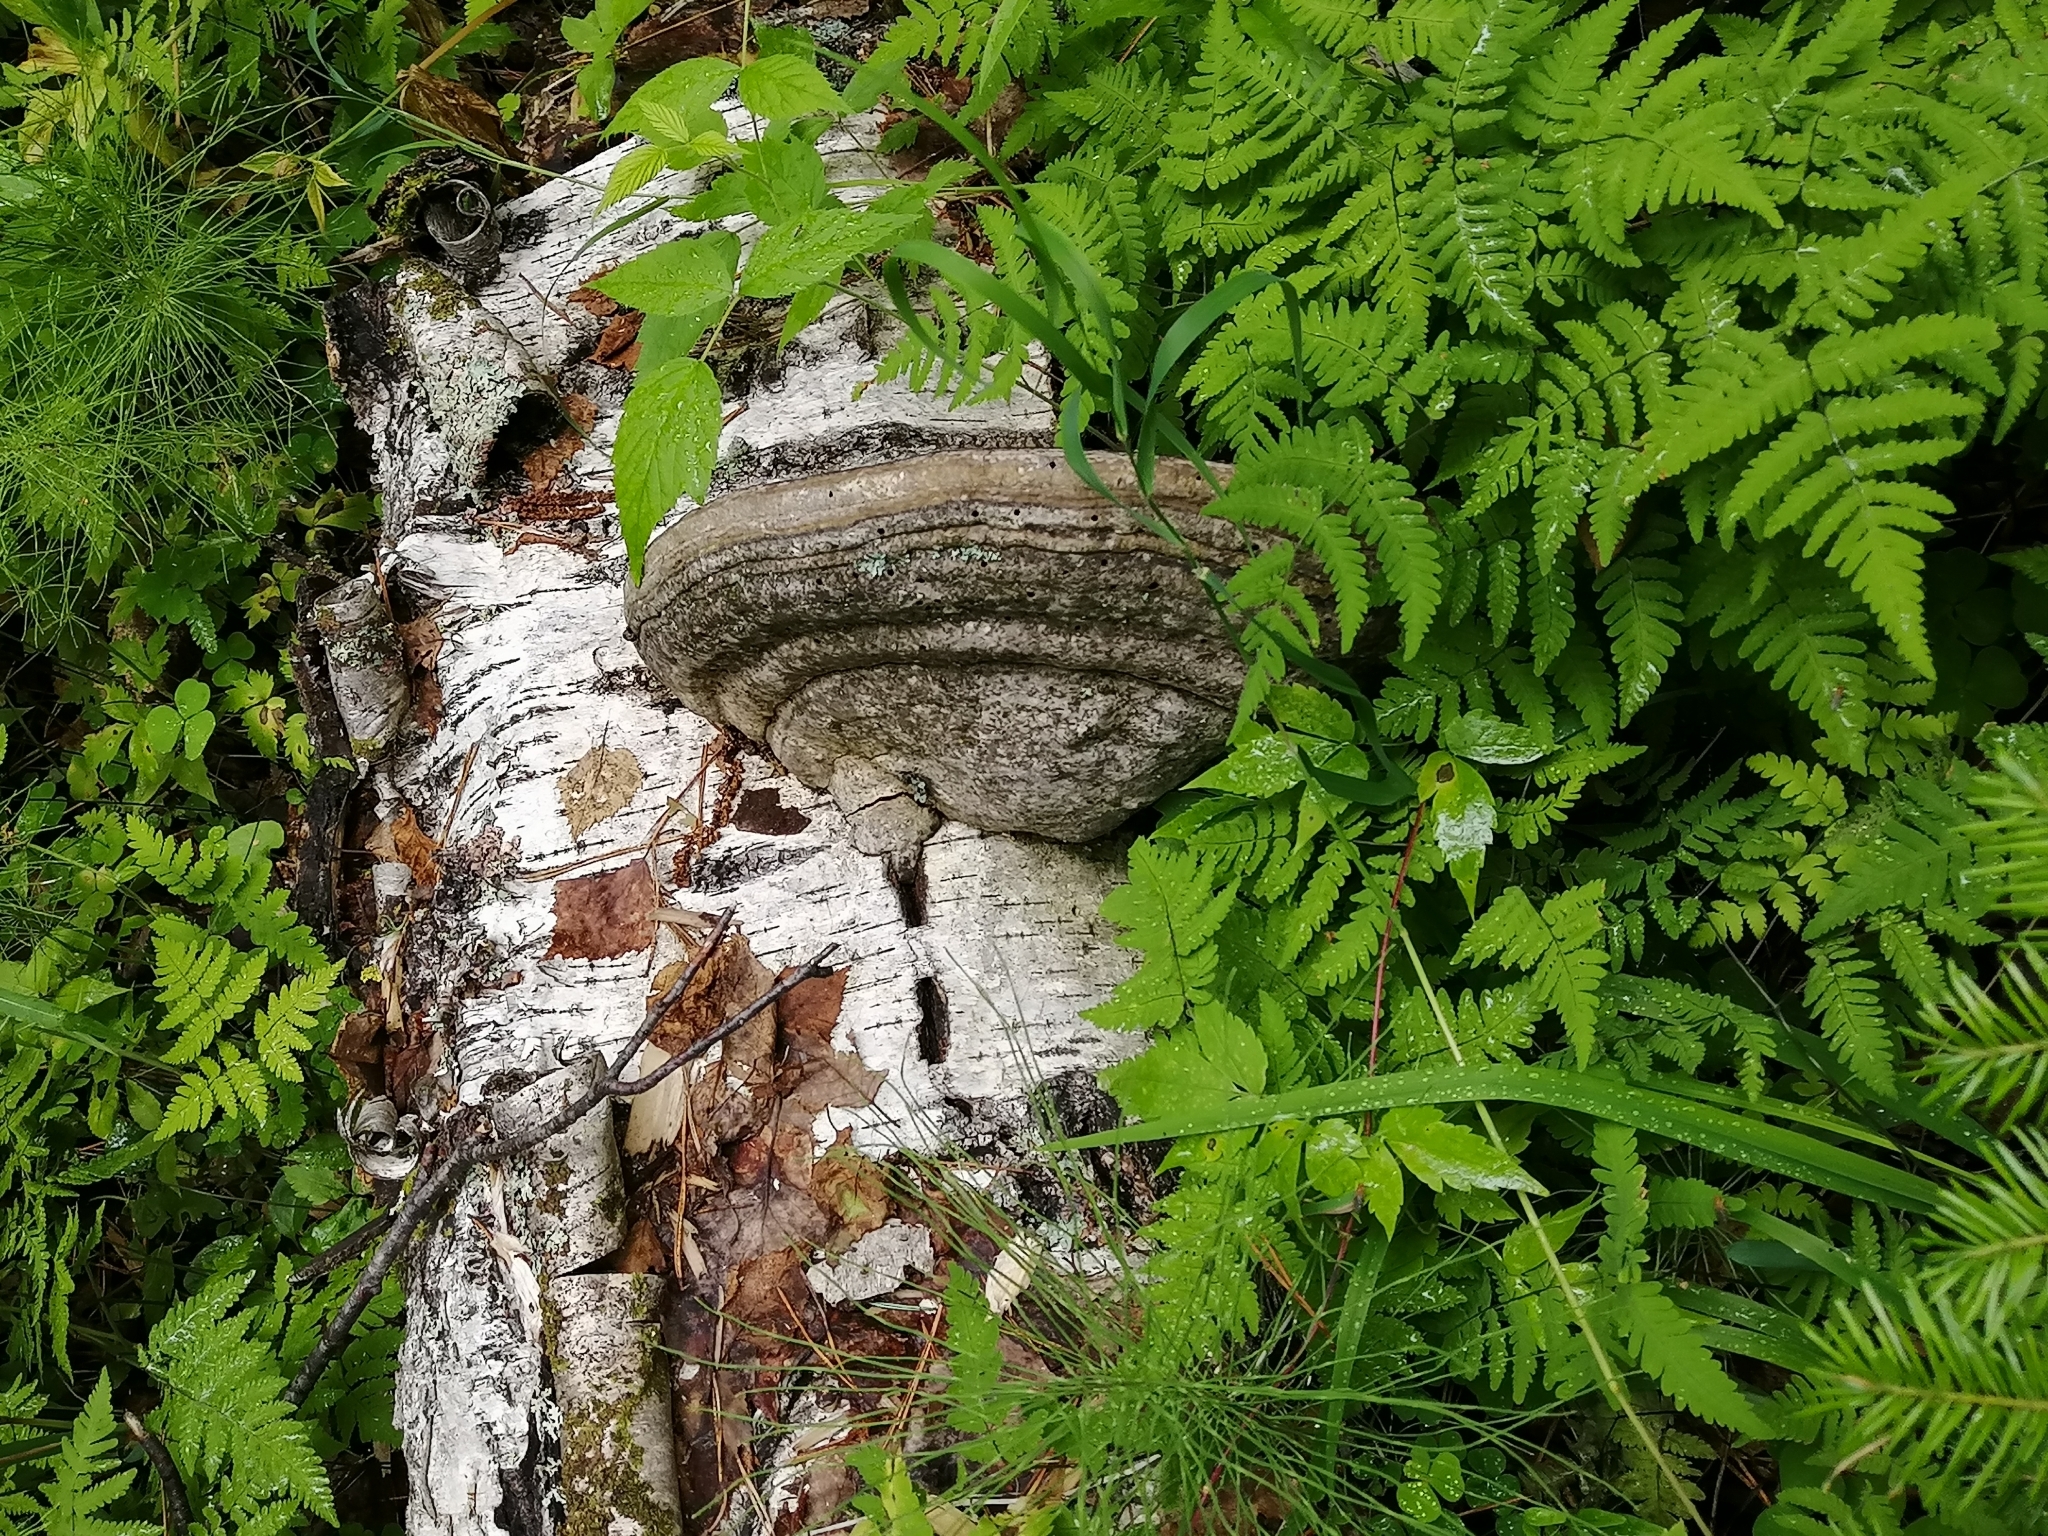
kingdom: Fungi
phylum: Basidiomycota
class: Agaricomycetes
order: Polyporales
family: Polyporaceae
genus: Fomes
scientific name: Fomes fomentarius
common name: Hoof fungus
